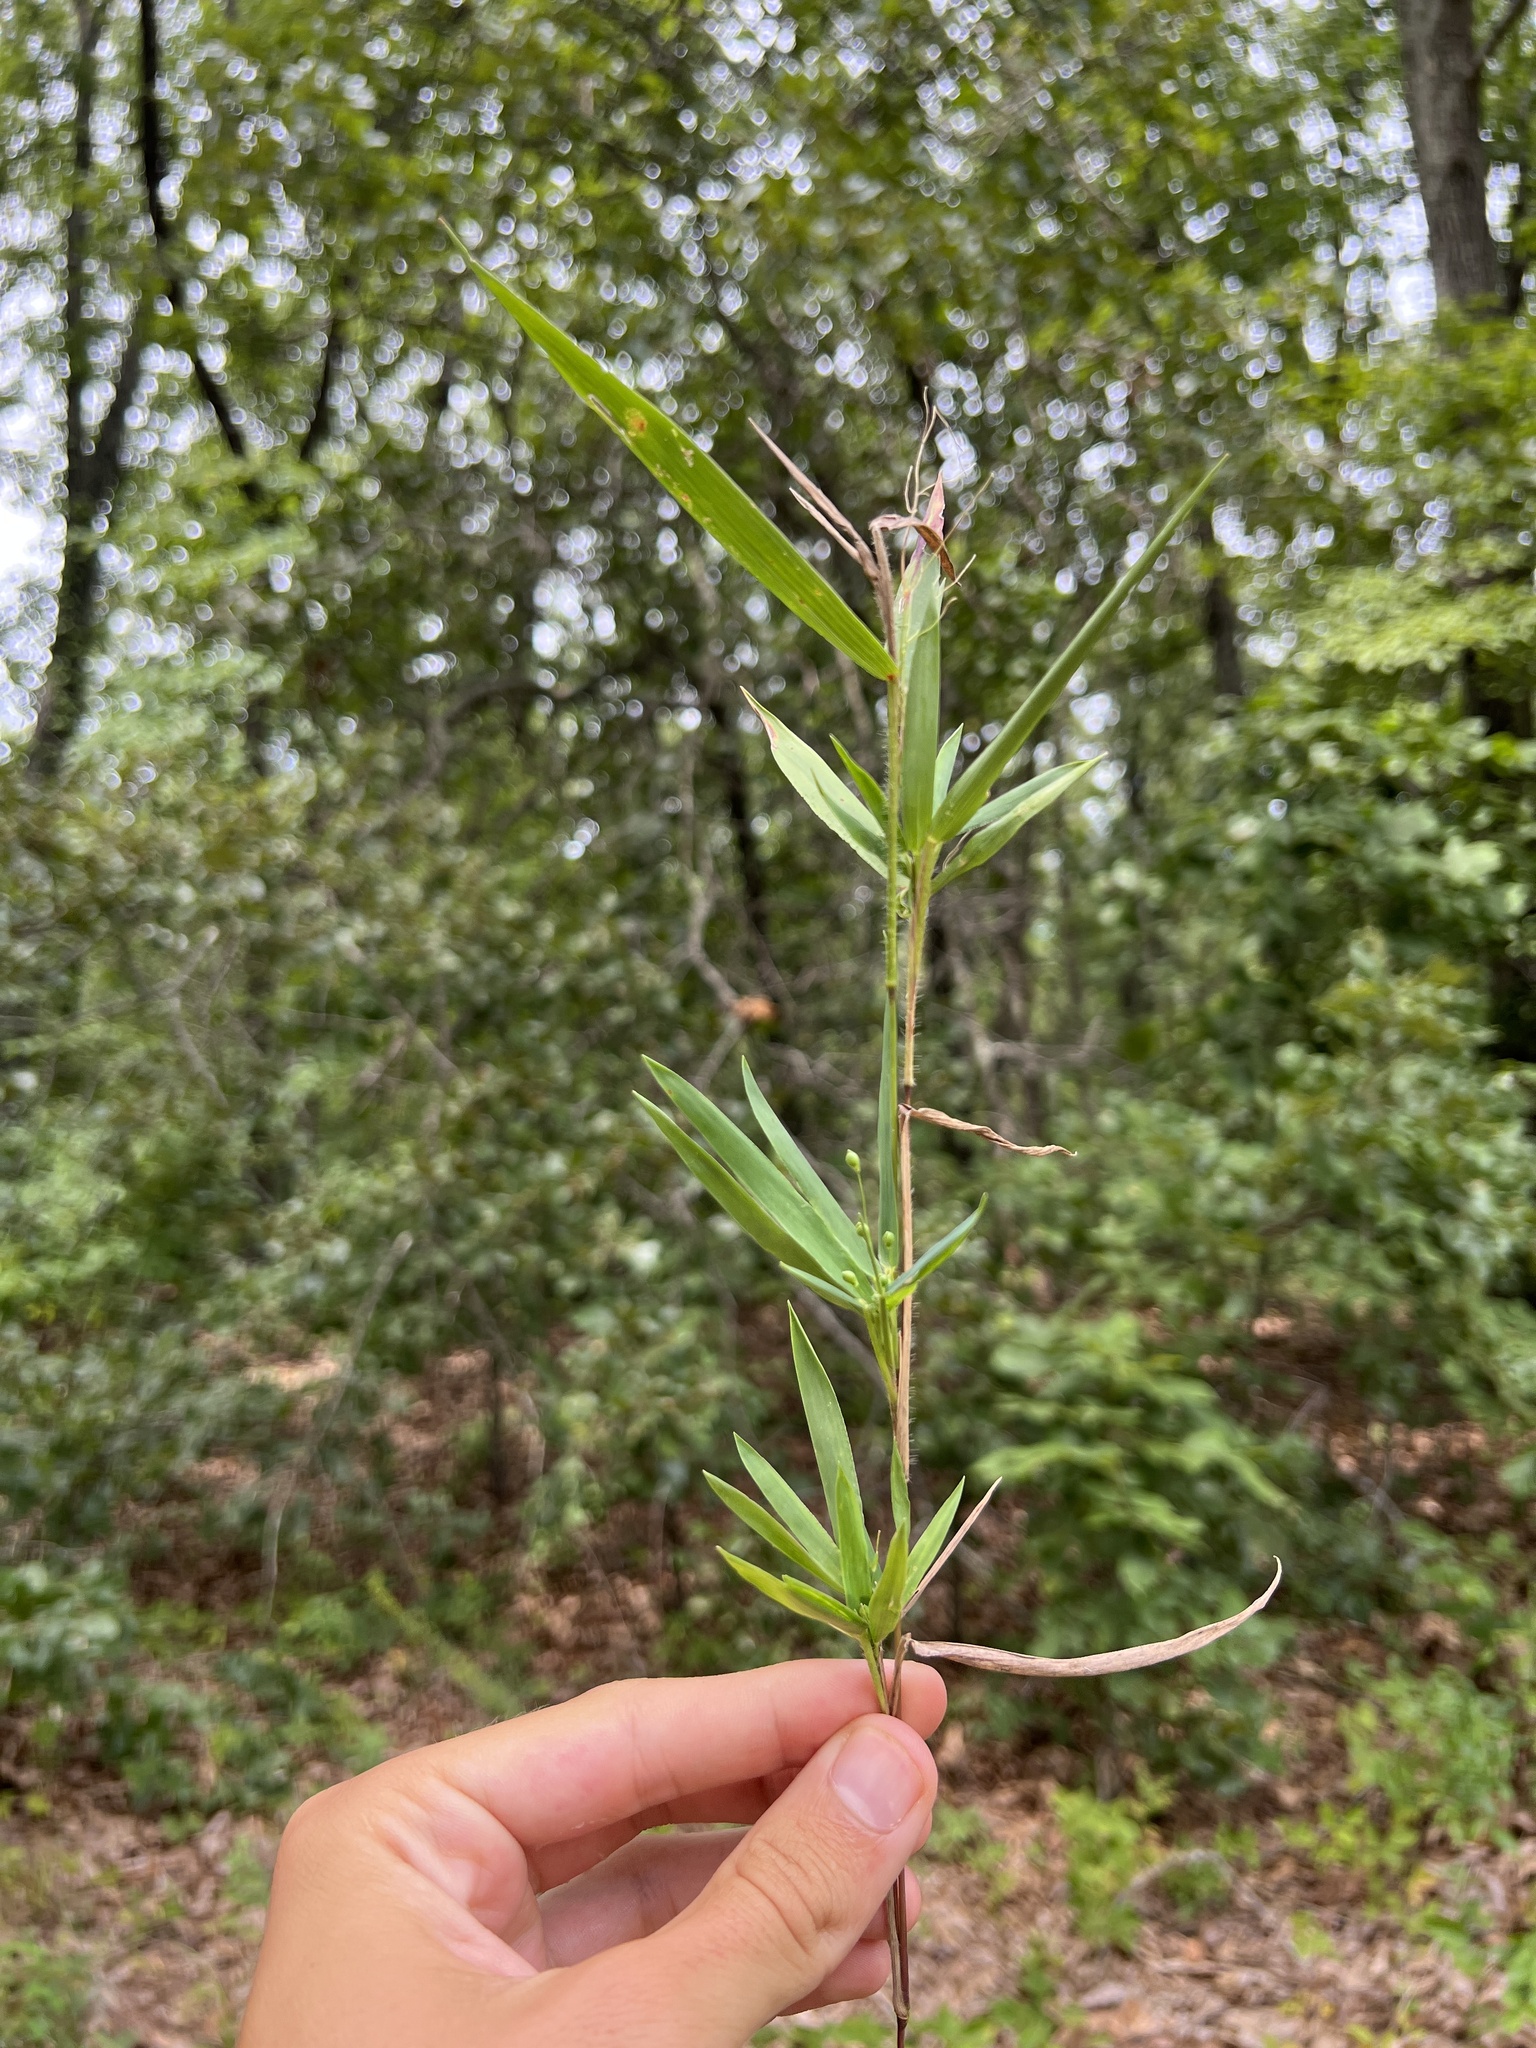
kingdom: Plantae
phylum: Tracheophyta
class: Liliopsida
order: Poales
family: Poaceae
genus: Dichanthelium
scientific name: Dichanthelium scribnerianum
